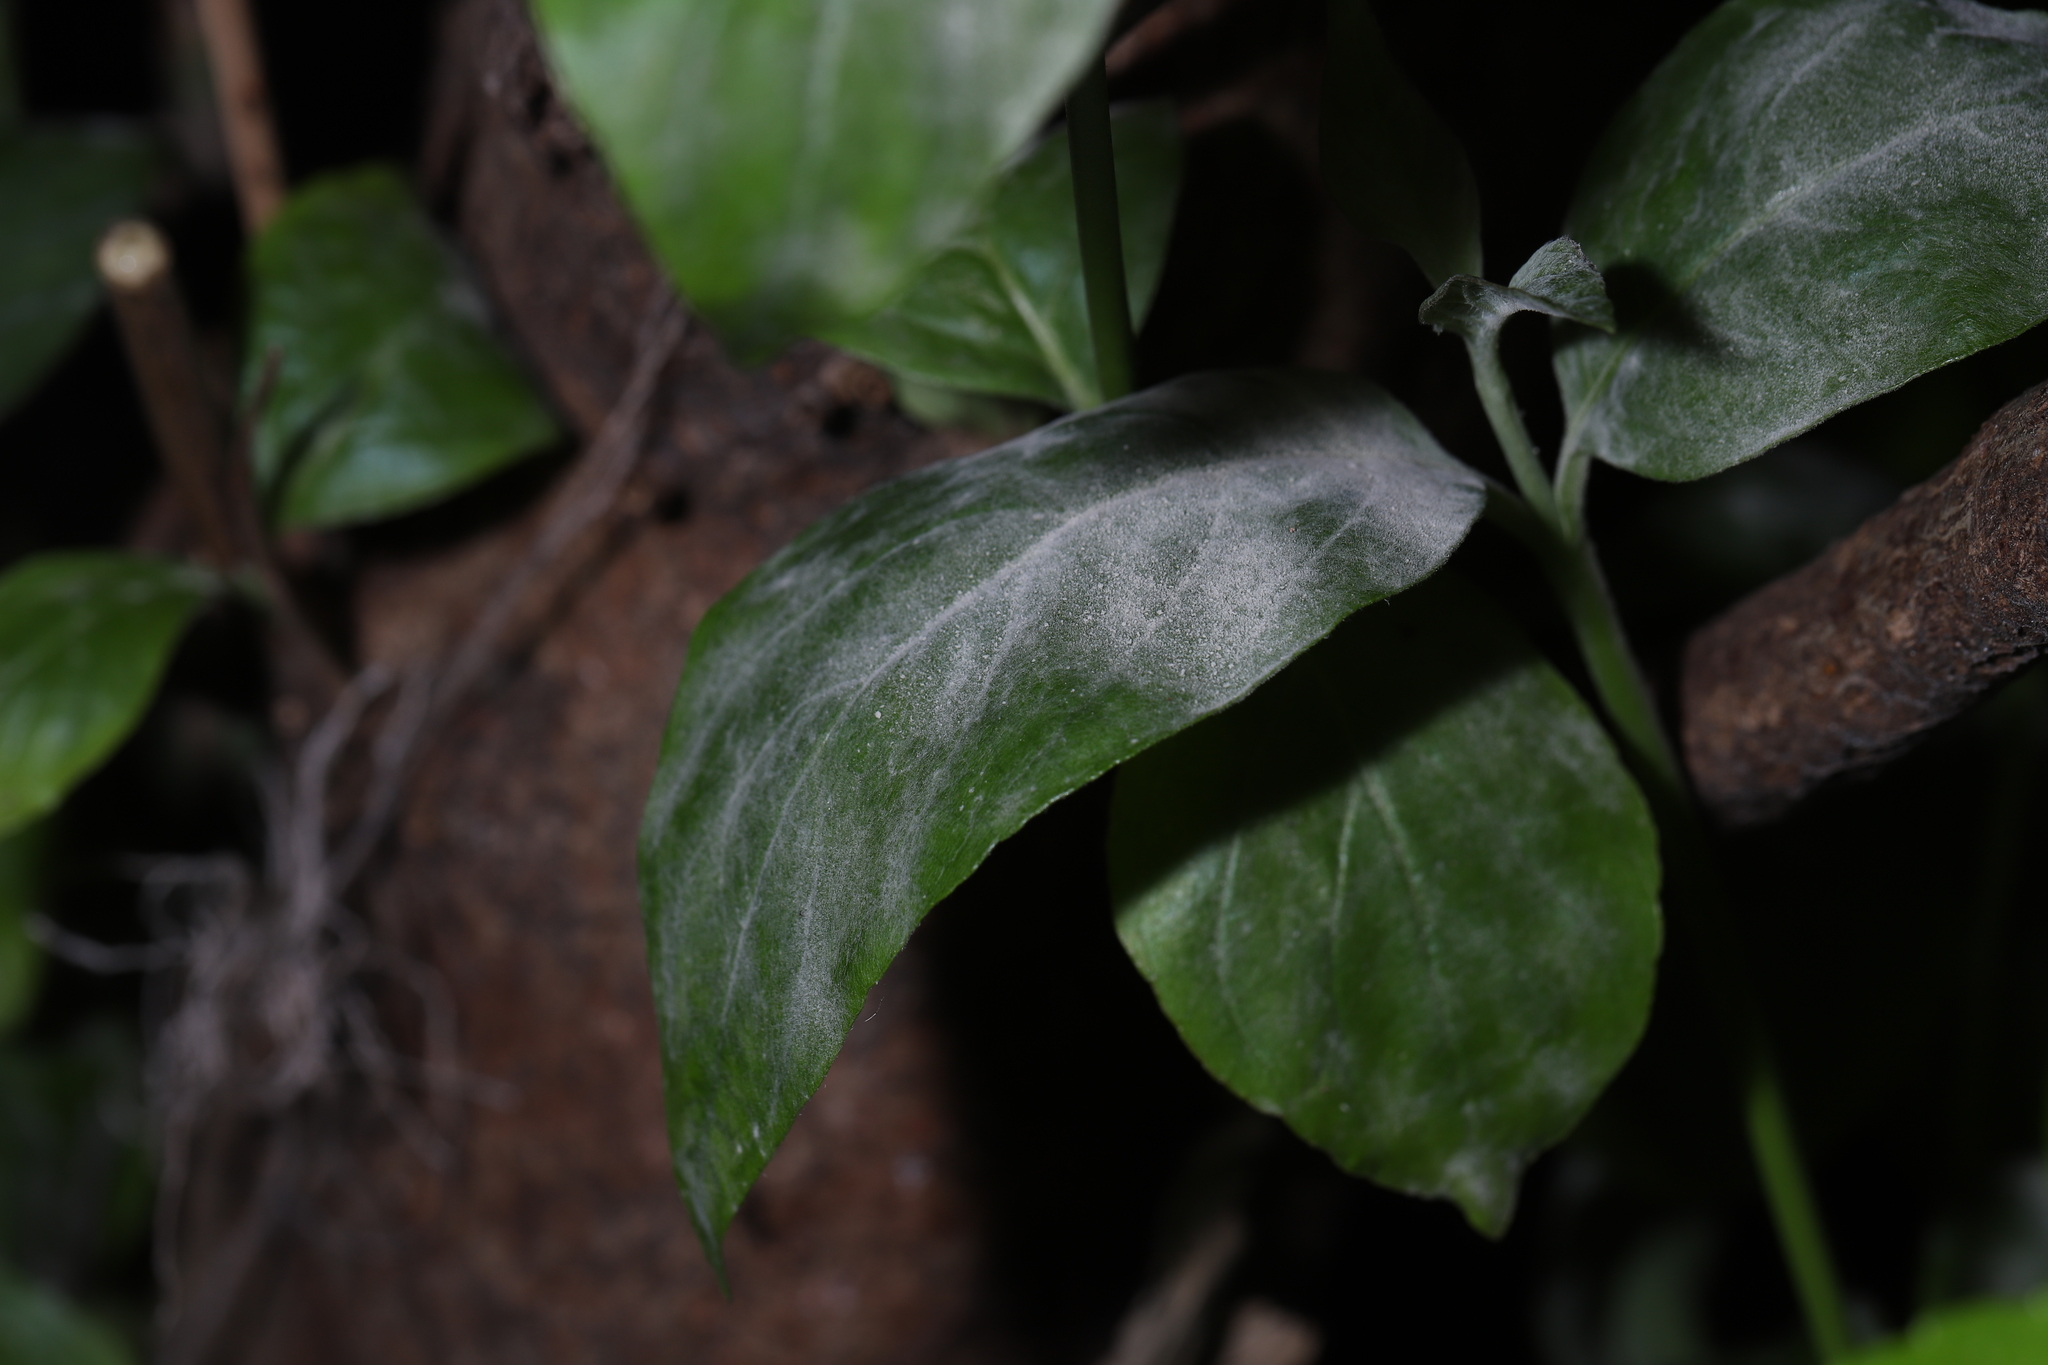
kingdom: Fungi
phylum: Ascomycota
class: Leotiomycetes
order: Helotiales
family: Erysiphaceae
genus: Erysiphe
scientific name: Erysiphe
